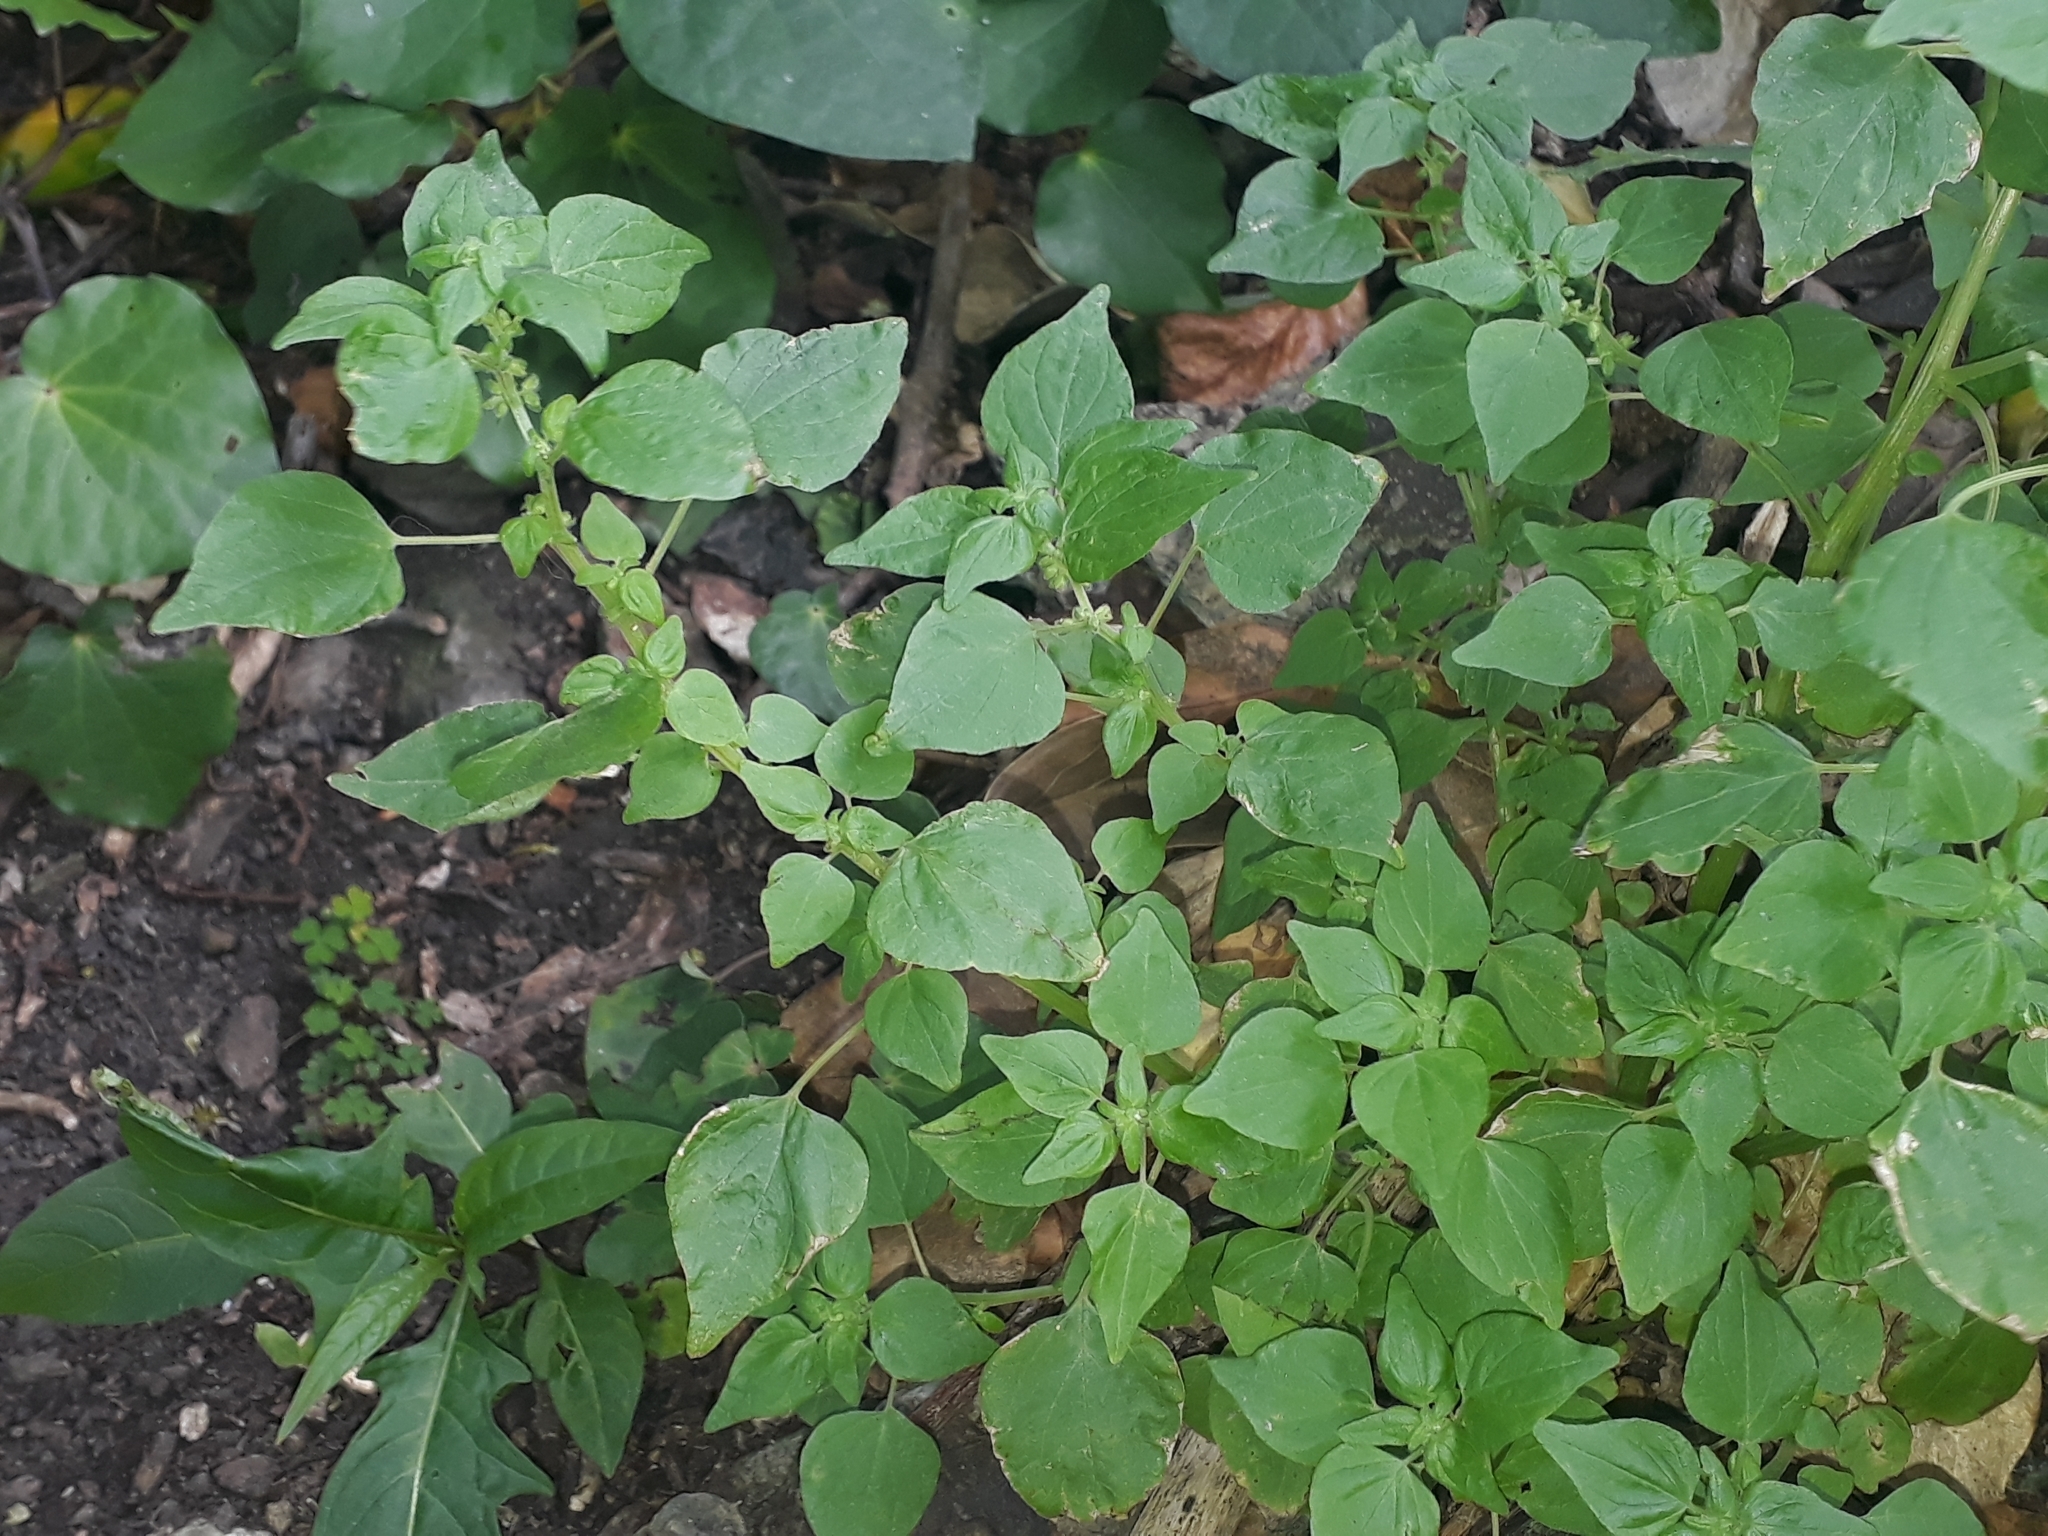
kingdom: Plantae
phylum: Tracheophyta
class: Magnoliopsida
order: Rosales
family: Urticaceae
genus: Parietaria
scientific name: Parietaria debilis
